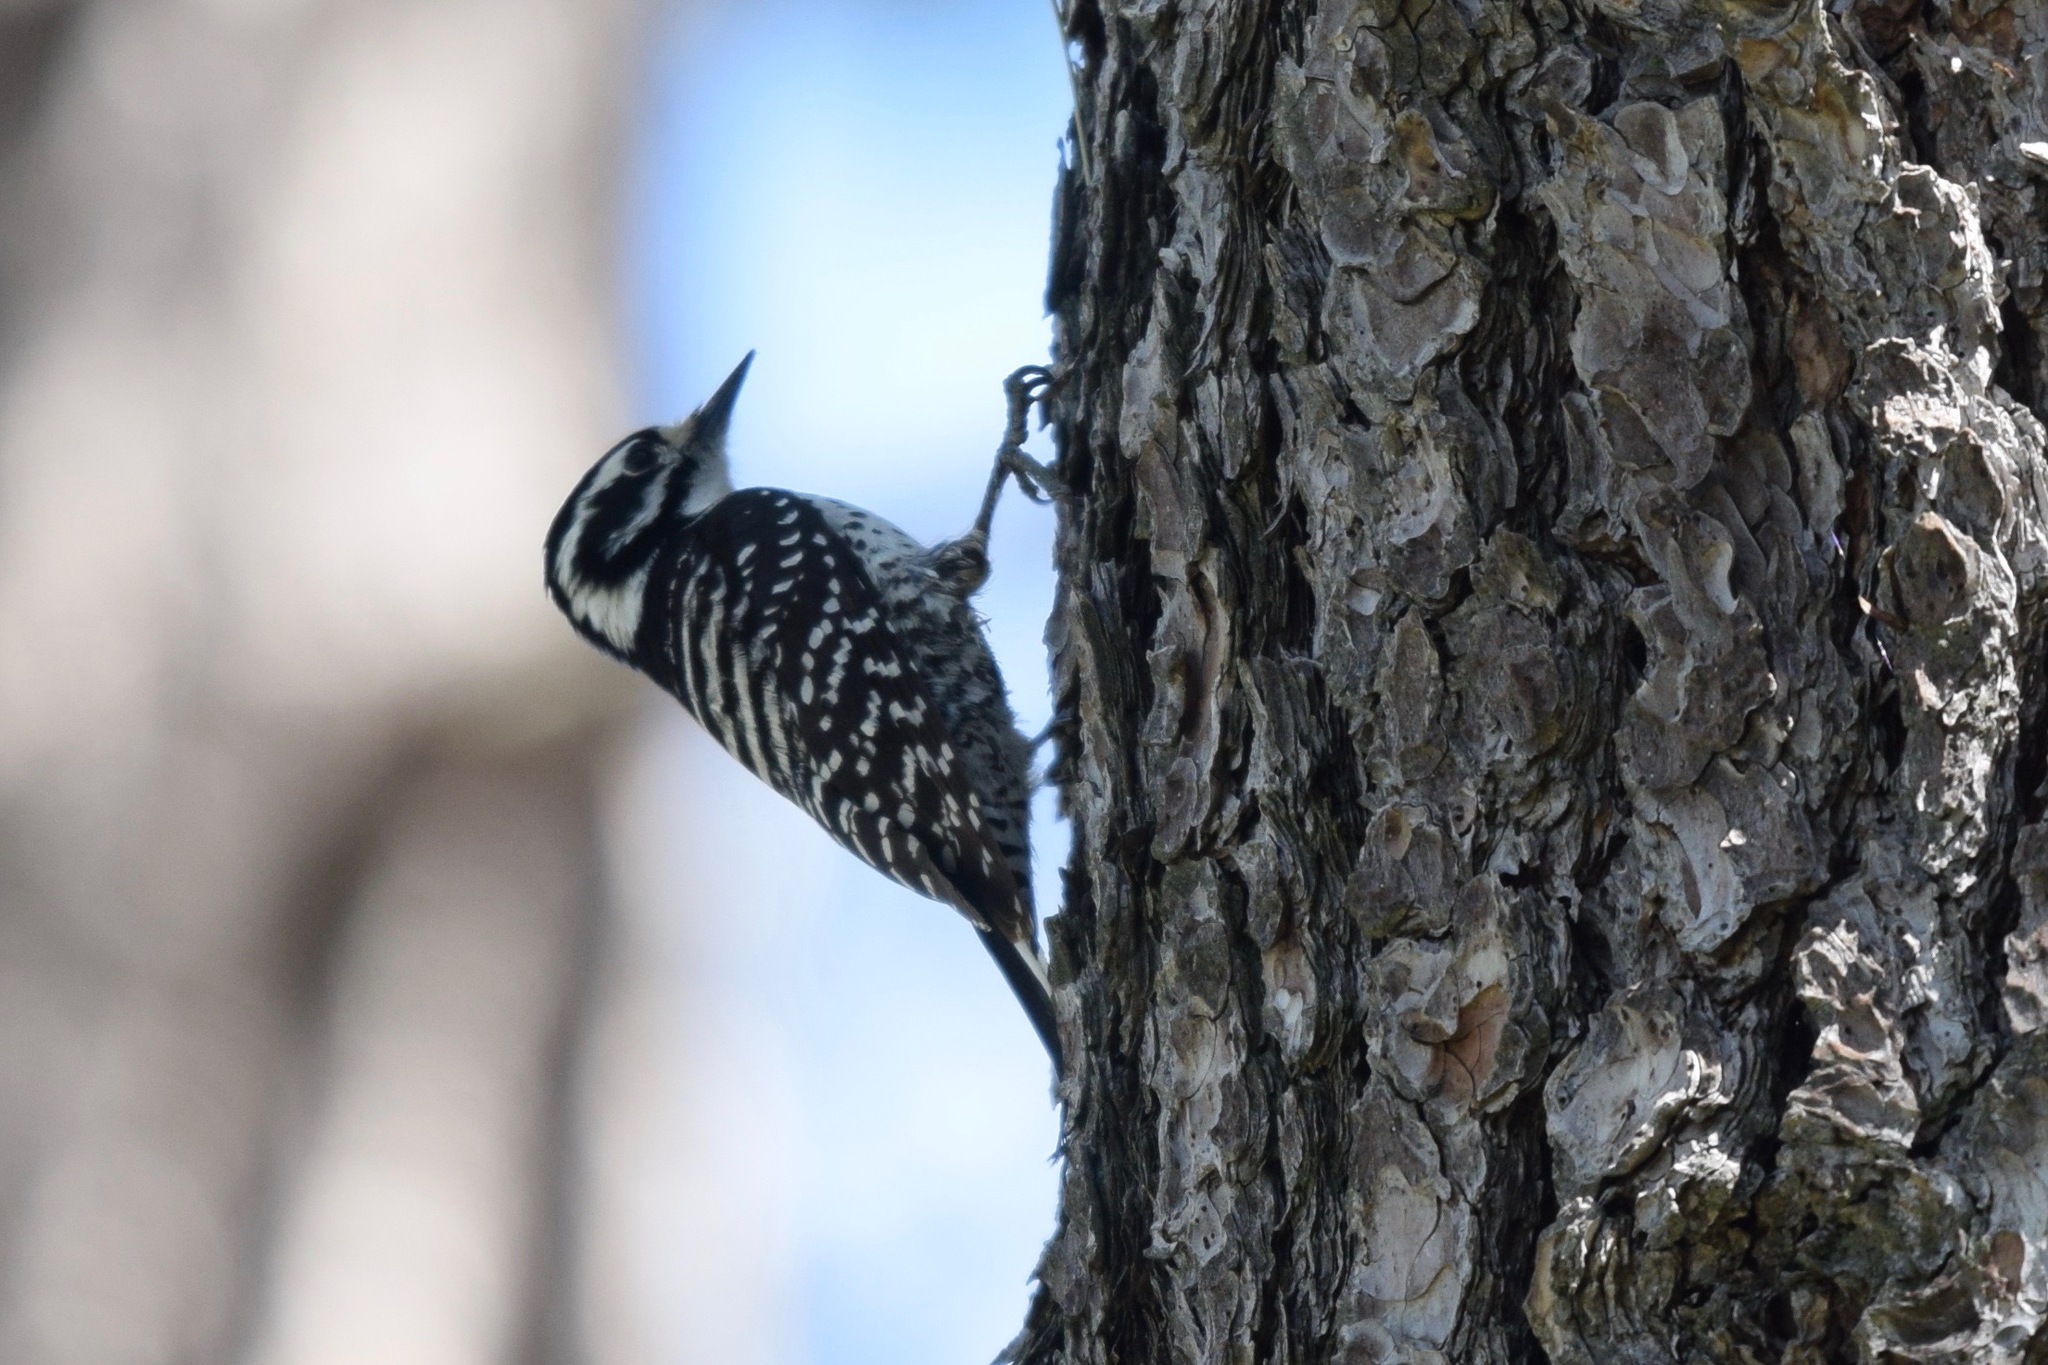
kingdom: Animalia
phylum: Chordata
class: Aves
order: Piciformes
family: Picidae
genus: Dryobates
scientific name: Dryobates nuttallii
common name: Nuttall's woodpecker
